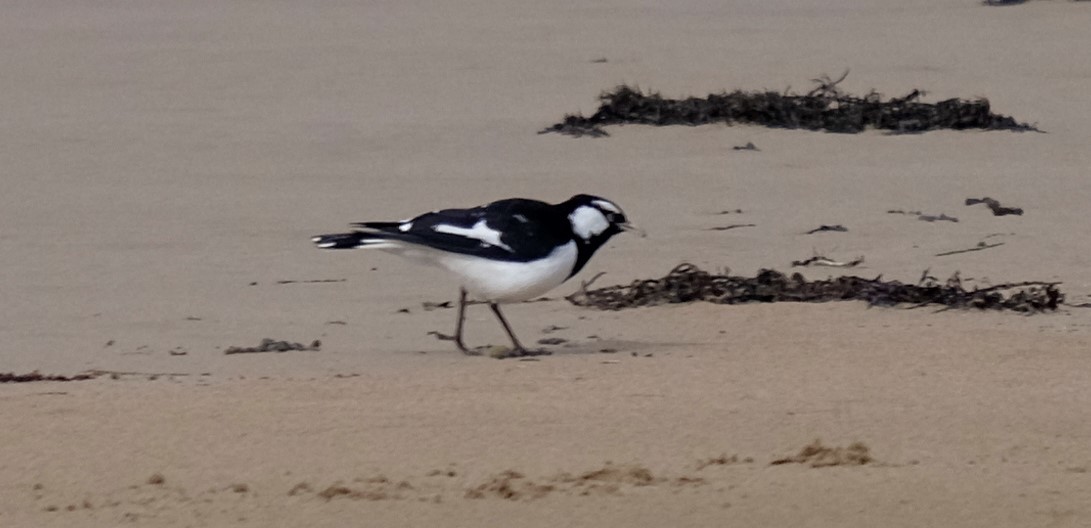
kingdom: Animalia
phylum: Chordata
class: Aves
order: Passeriformes
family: Monarchidae
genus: Grallina
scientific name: Grallina cyanoleuca
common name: Magpie-lark
